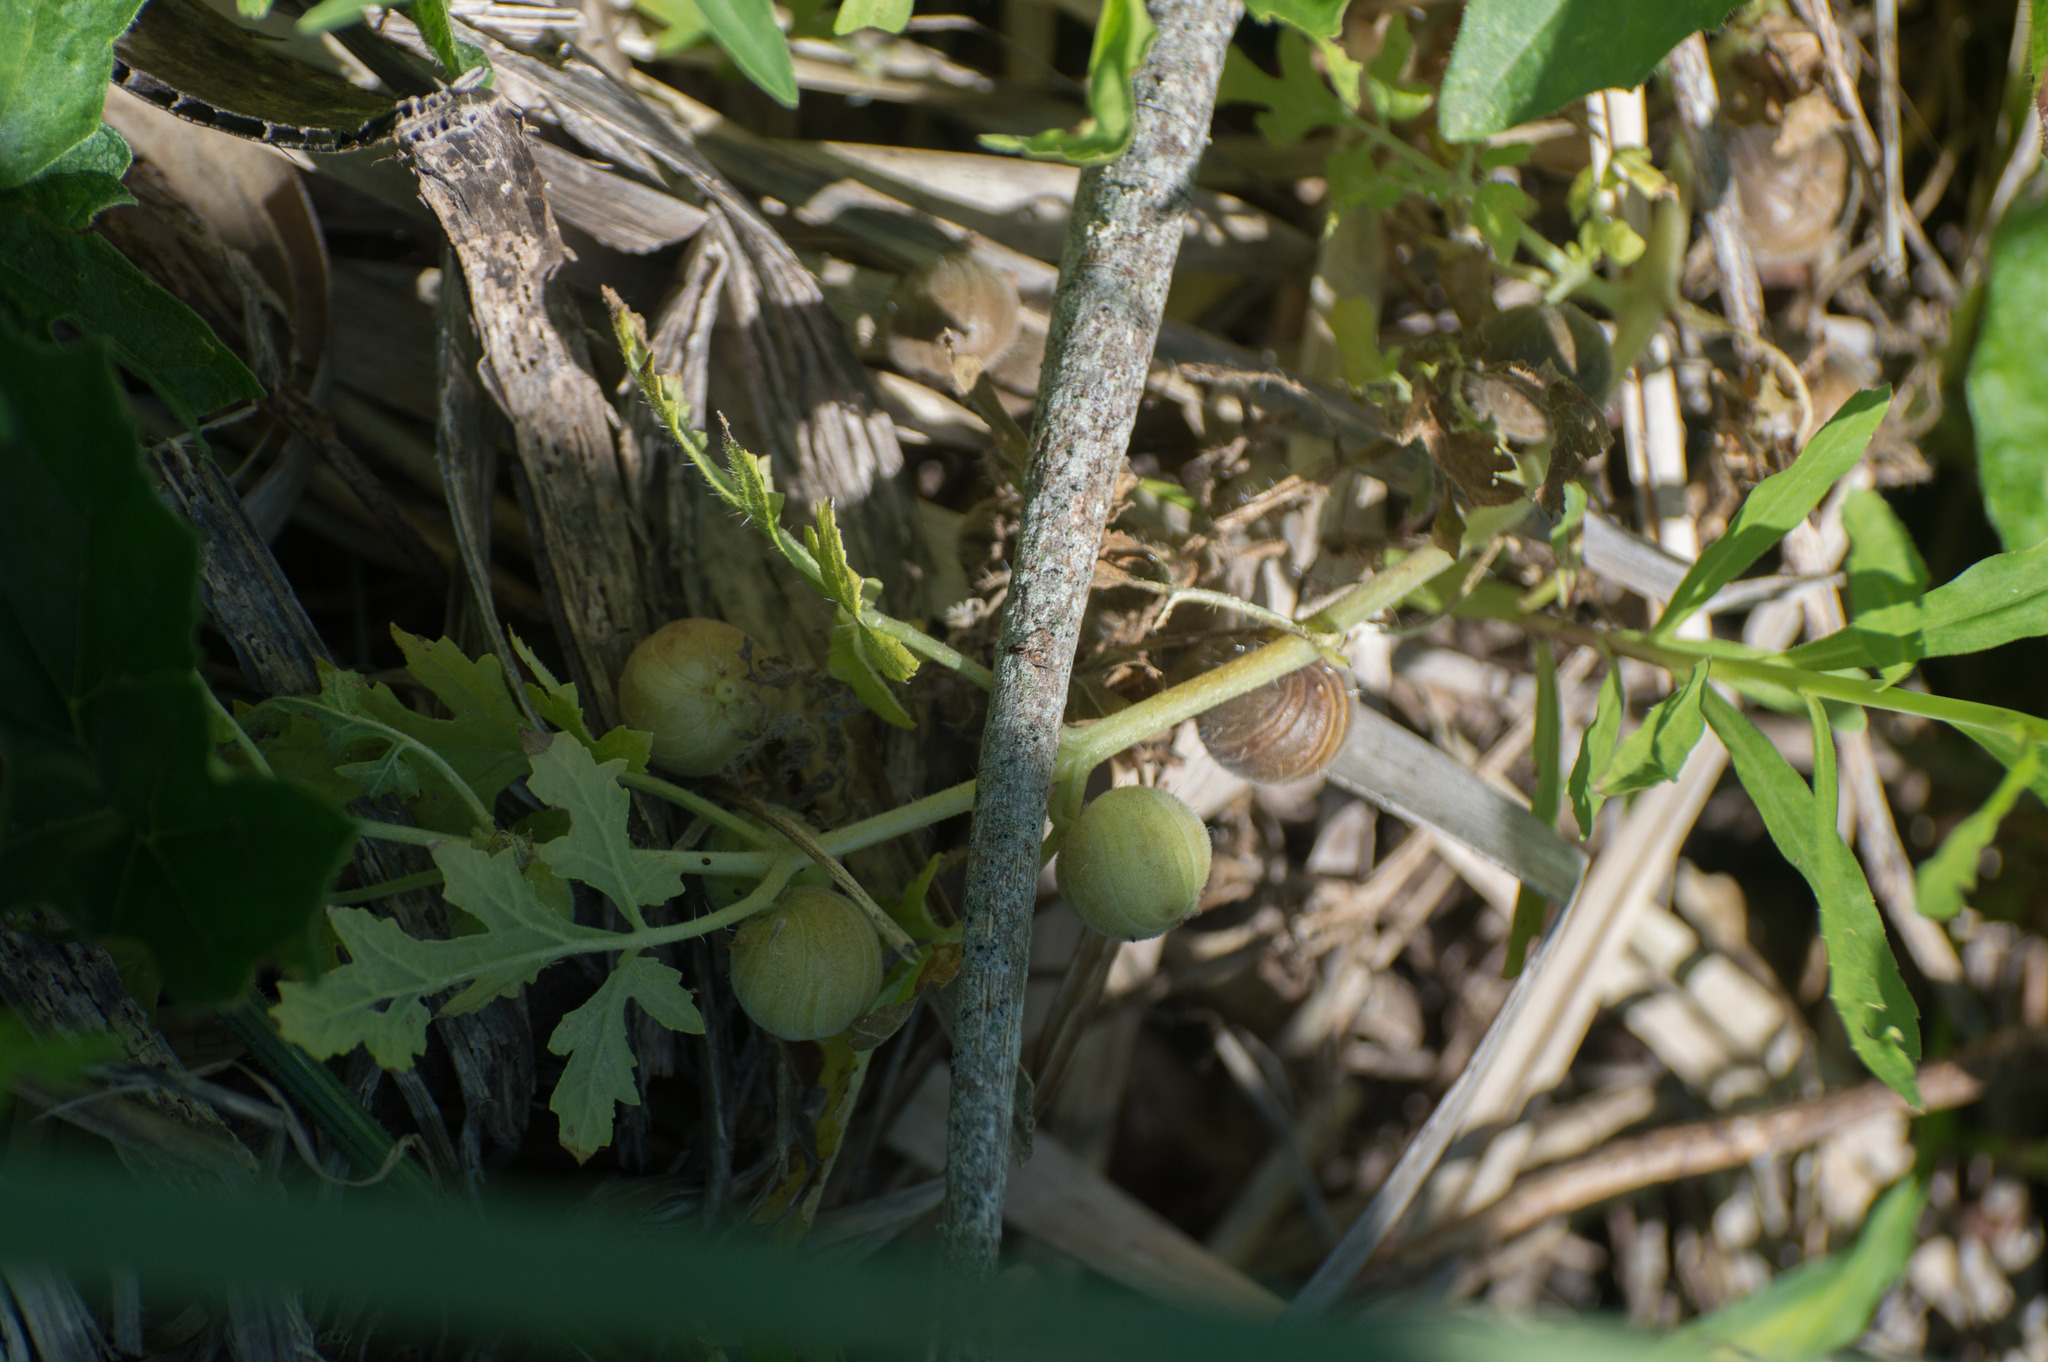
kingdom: Plantae
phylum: Tracheophyta
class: Magnoliopsida
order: Cornales
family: Loasaceae
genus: Blumenbachia
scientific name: Blumenbachia latifolia
